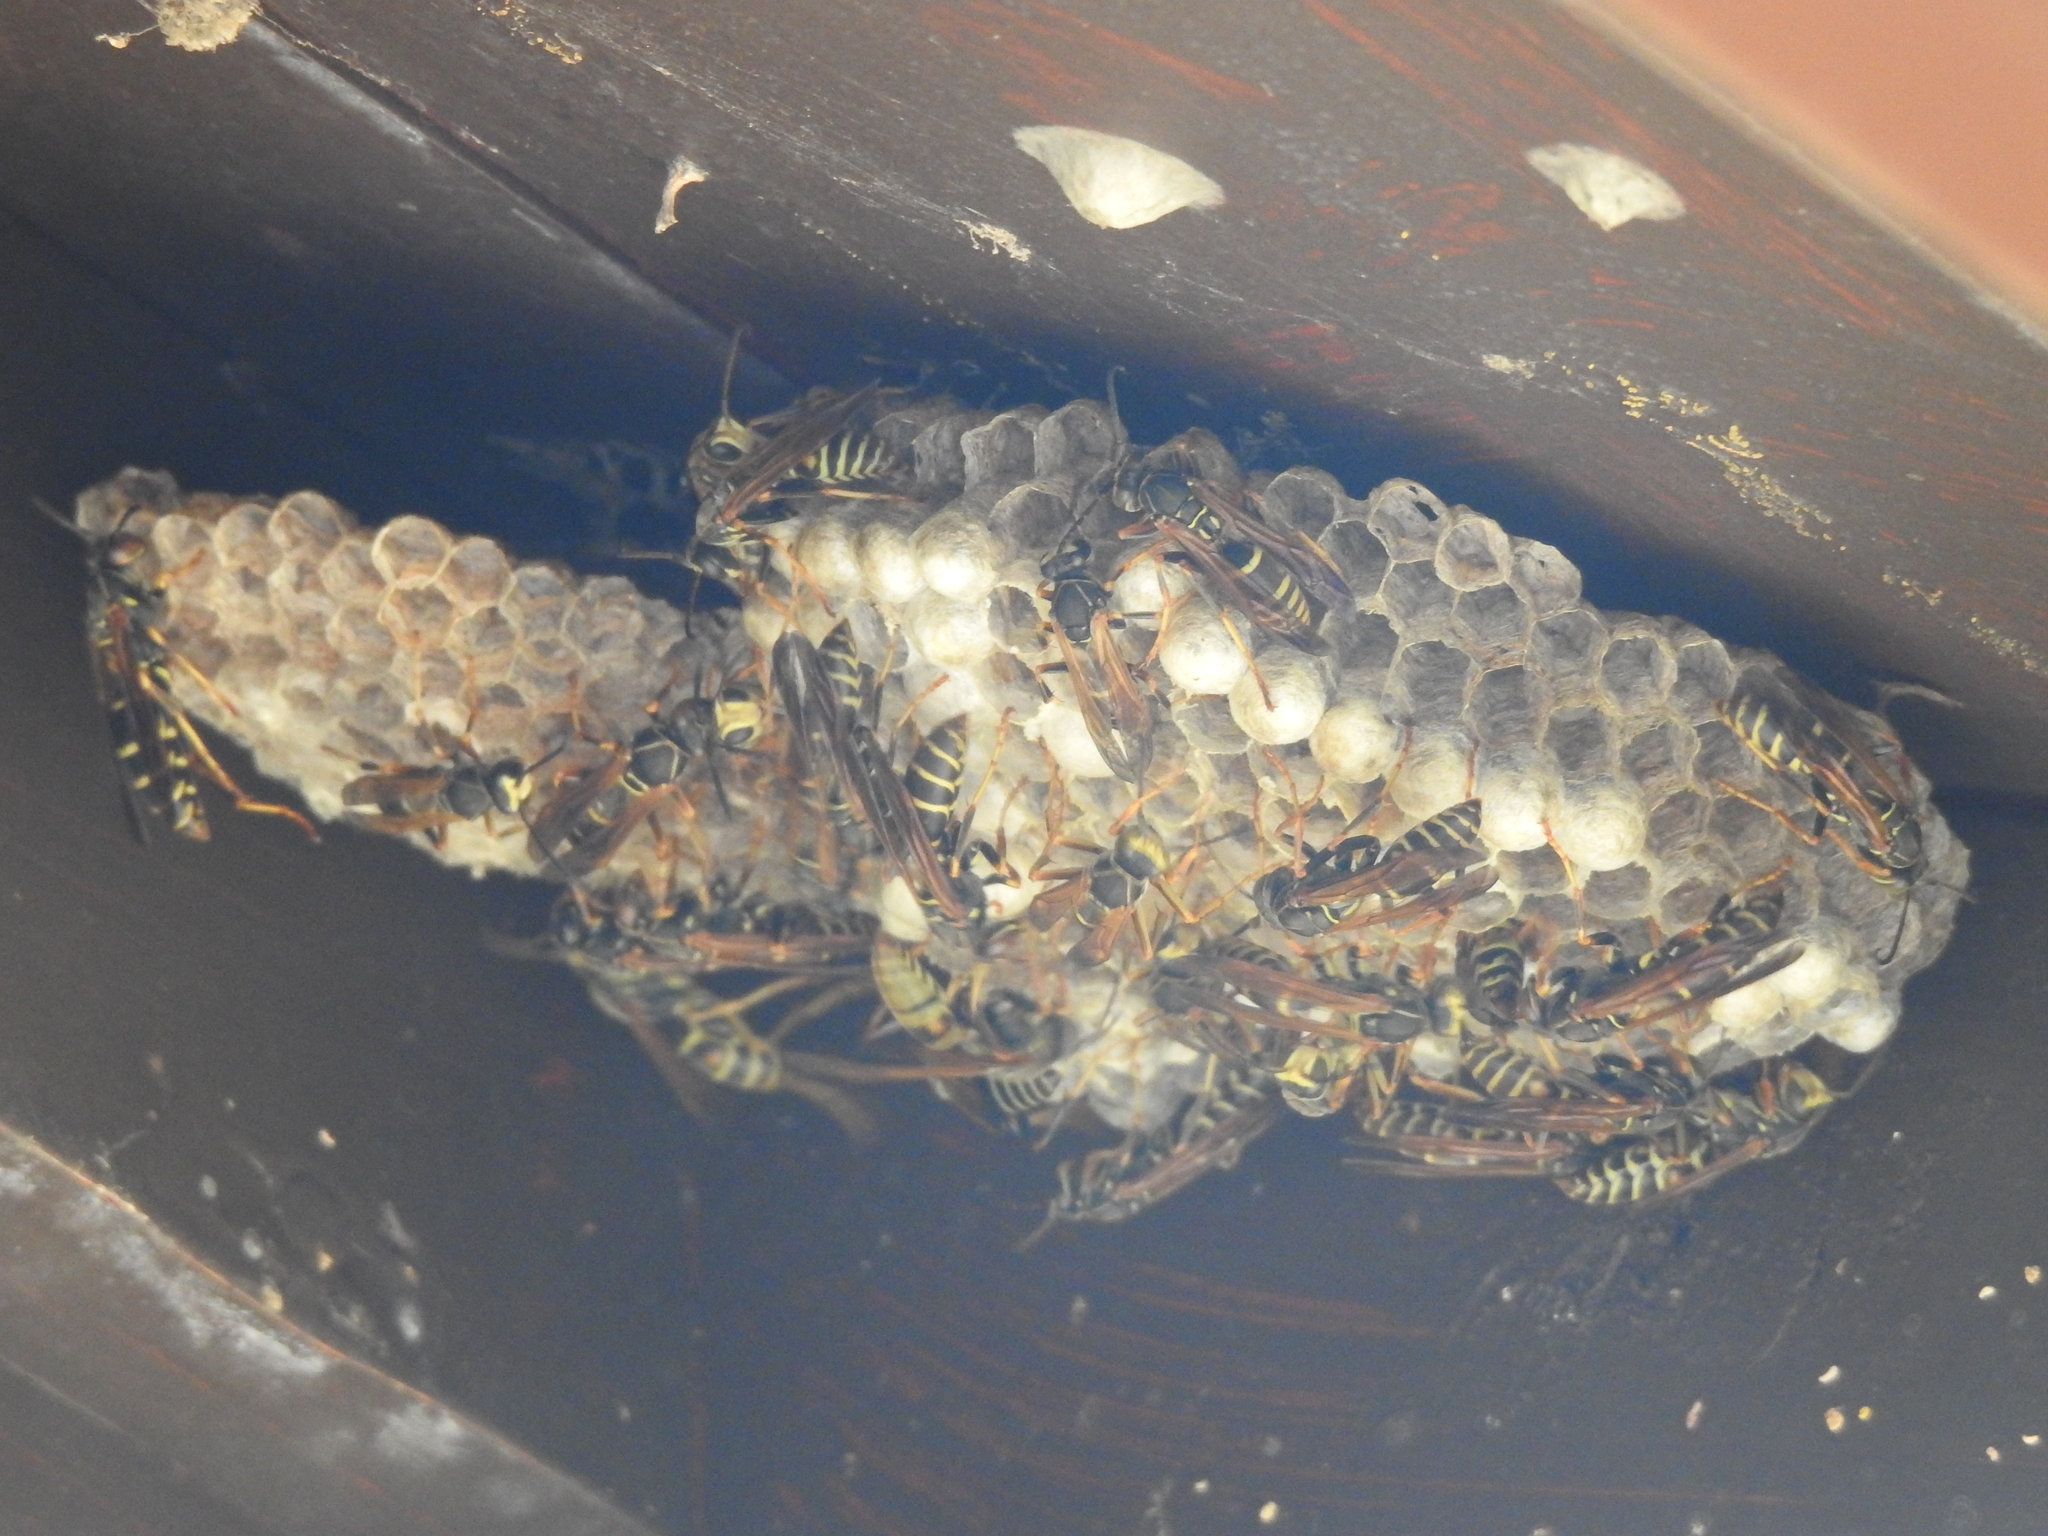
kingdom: Animalia
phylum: Arthropoda
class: Insecta
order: Hymenoptera
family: Eumenidae
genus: Polistes
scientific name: Polistes fuscatus
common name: Dark paper wasp
